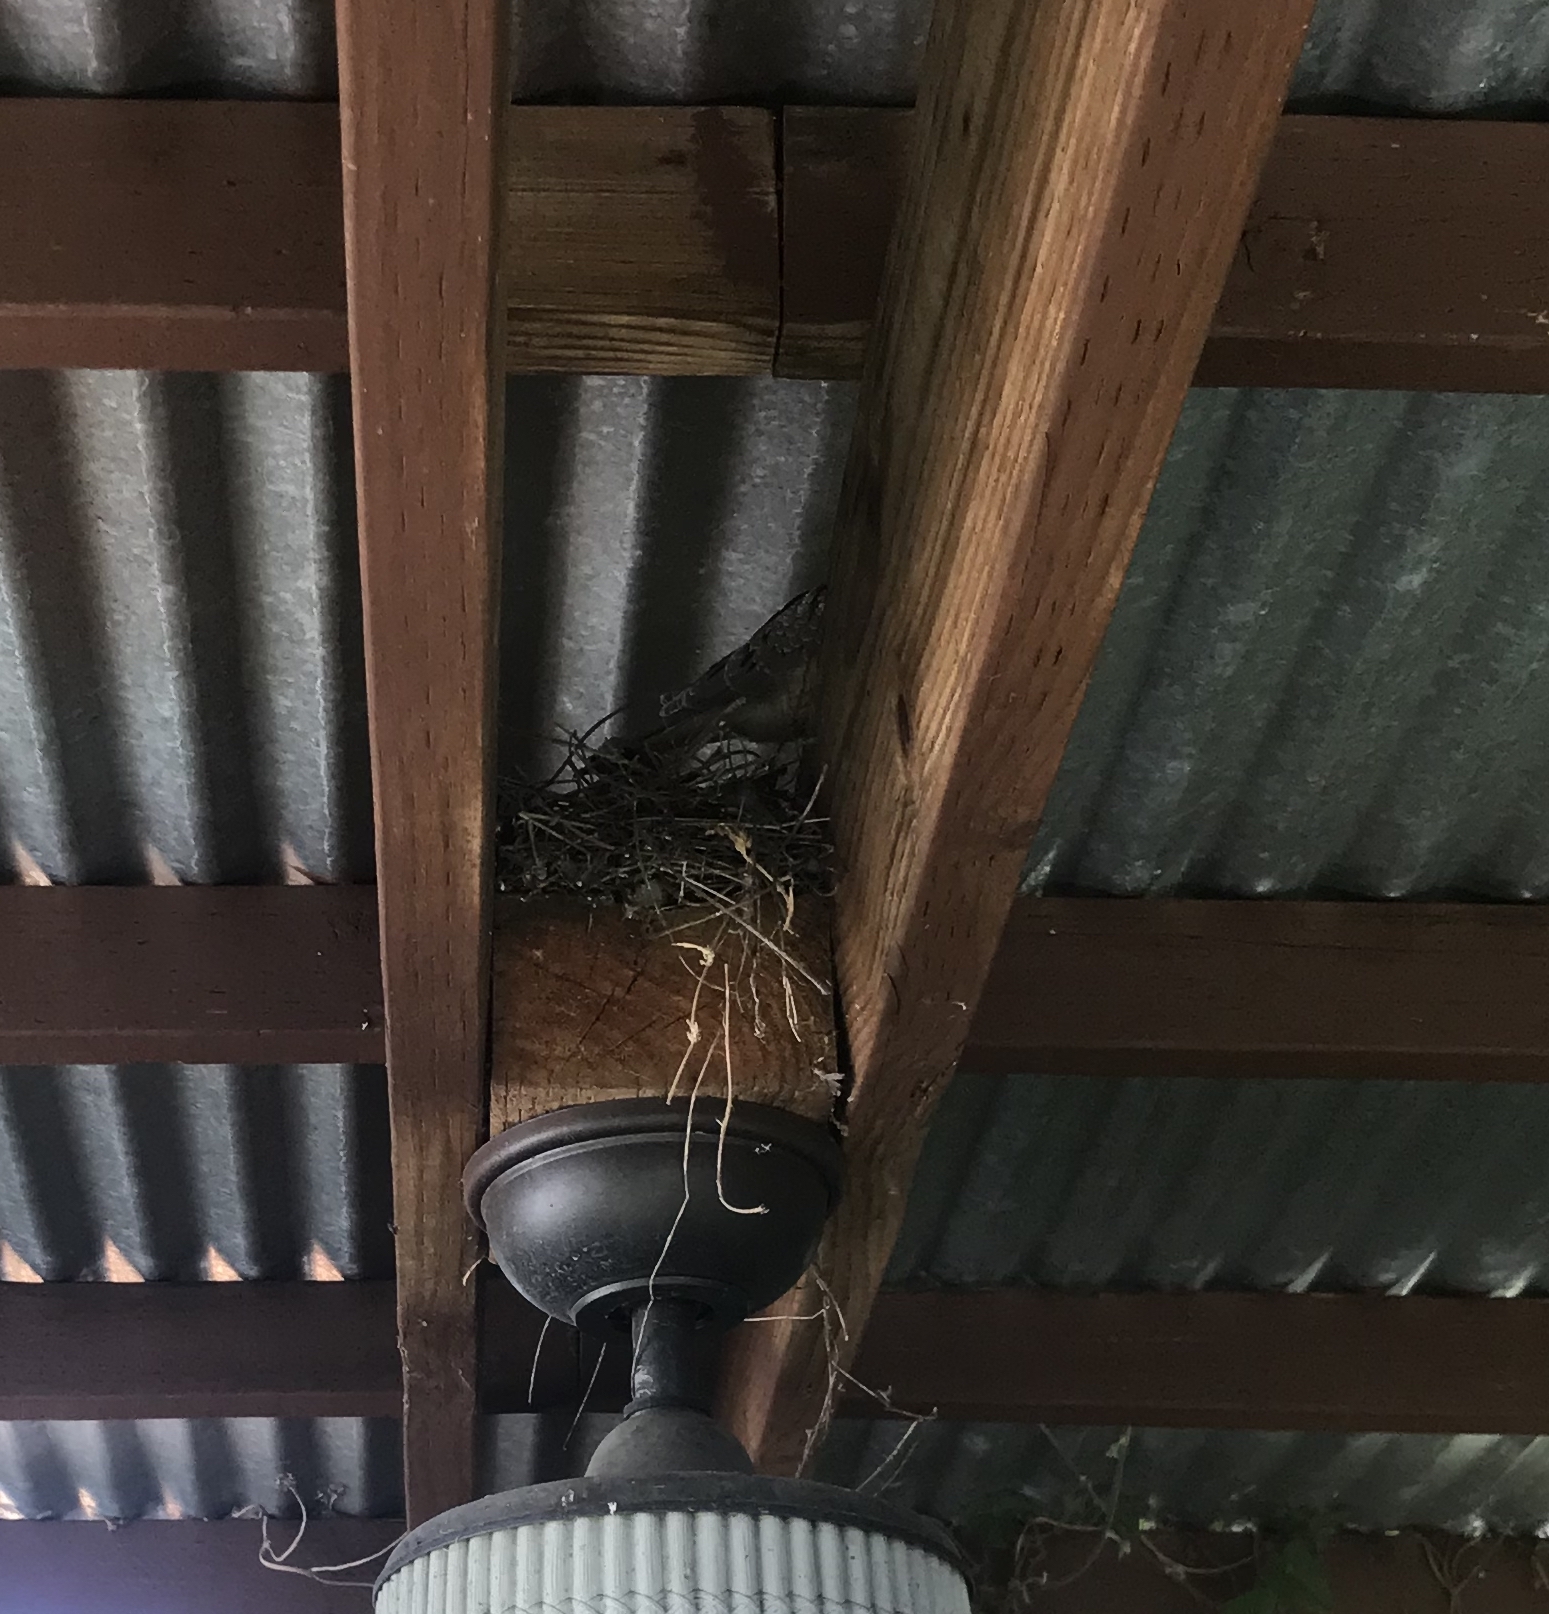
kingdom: Animalia
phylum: Chordata
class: Aves
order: Columbiformes
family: Columbidae
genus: Zenaida
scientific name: Zenaida macroura
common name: Mourning dove
